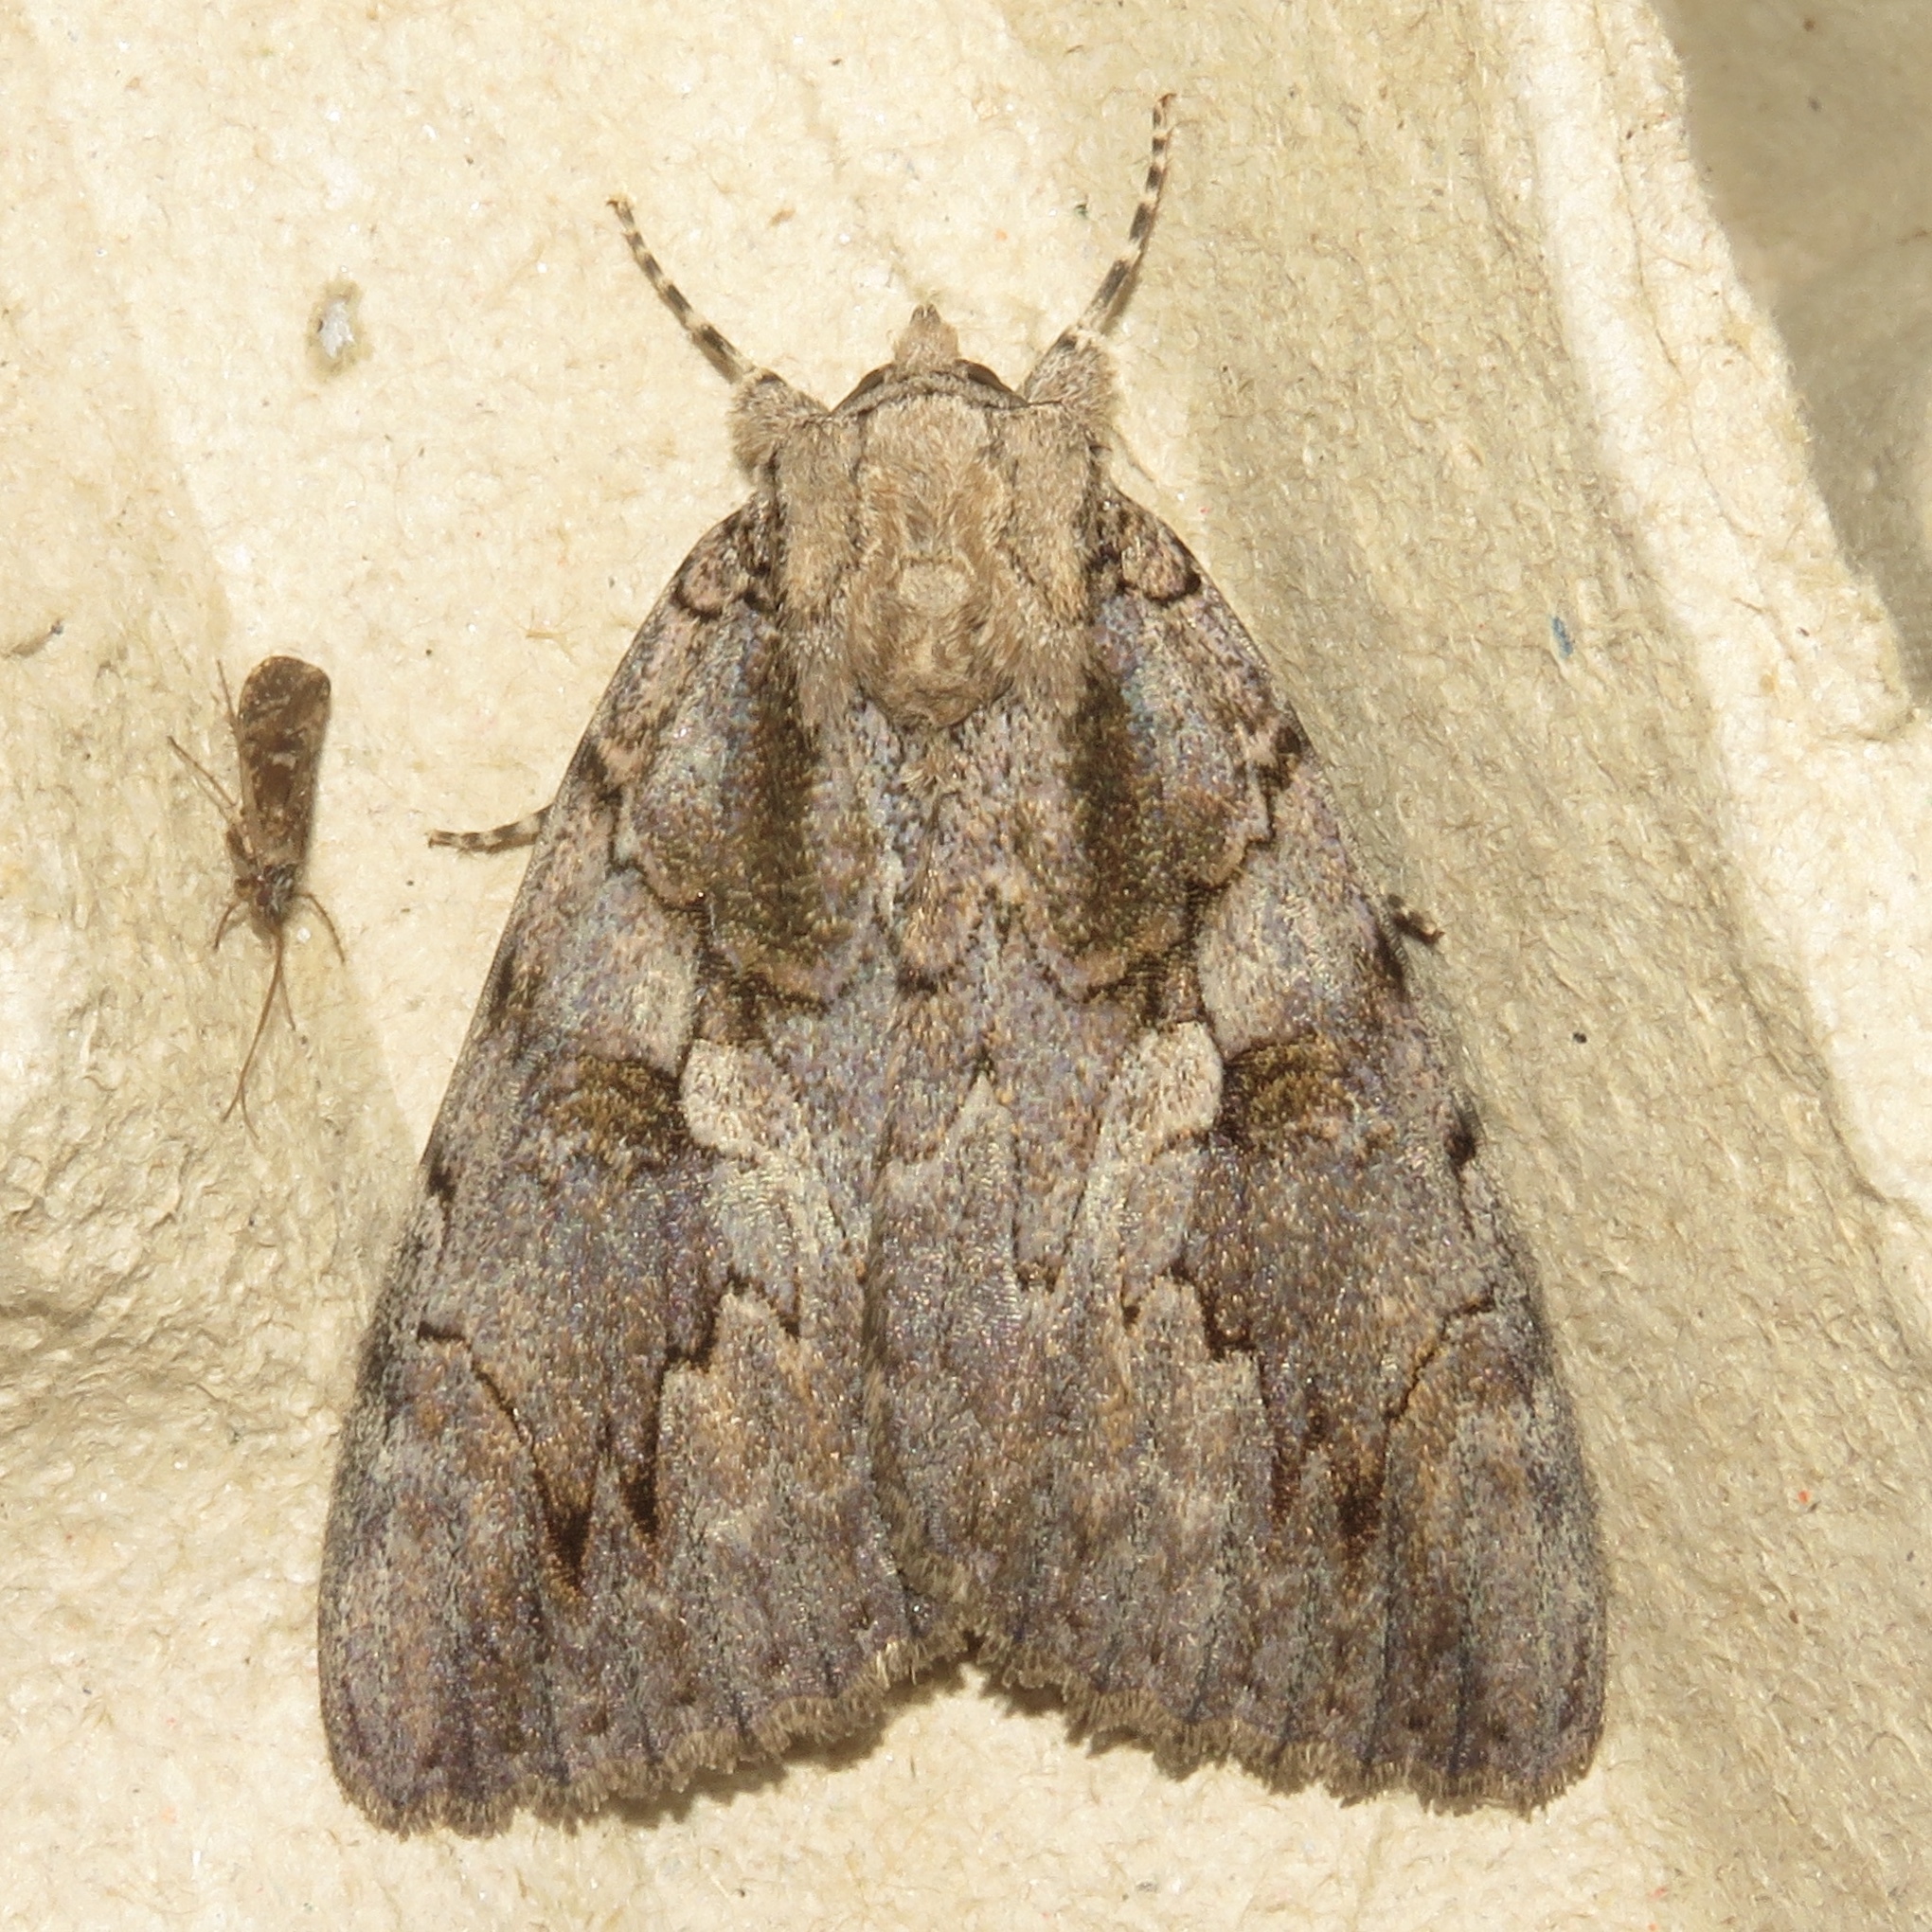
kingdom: Animalia
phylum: Arthropoda
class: Insecta
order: Lepidoptera
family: Erebidae
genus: Catocala
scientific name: Catocala amatrix
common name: Sweetheart underwing
